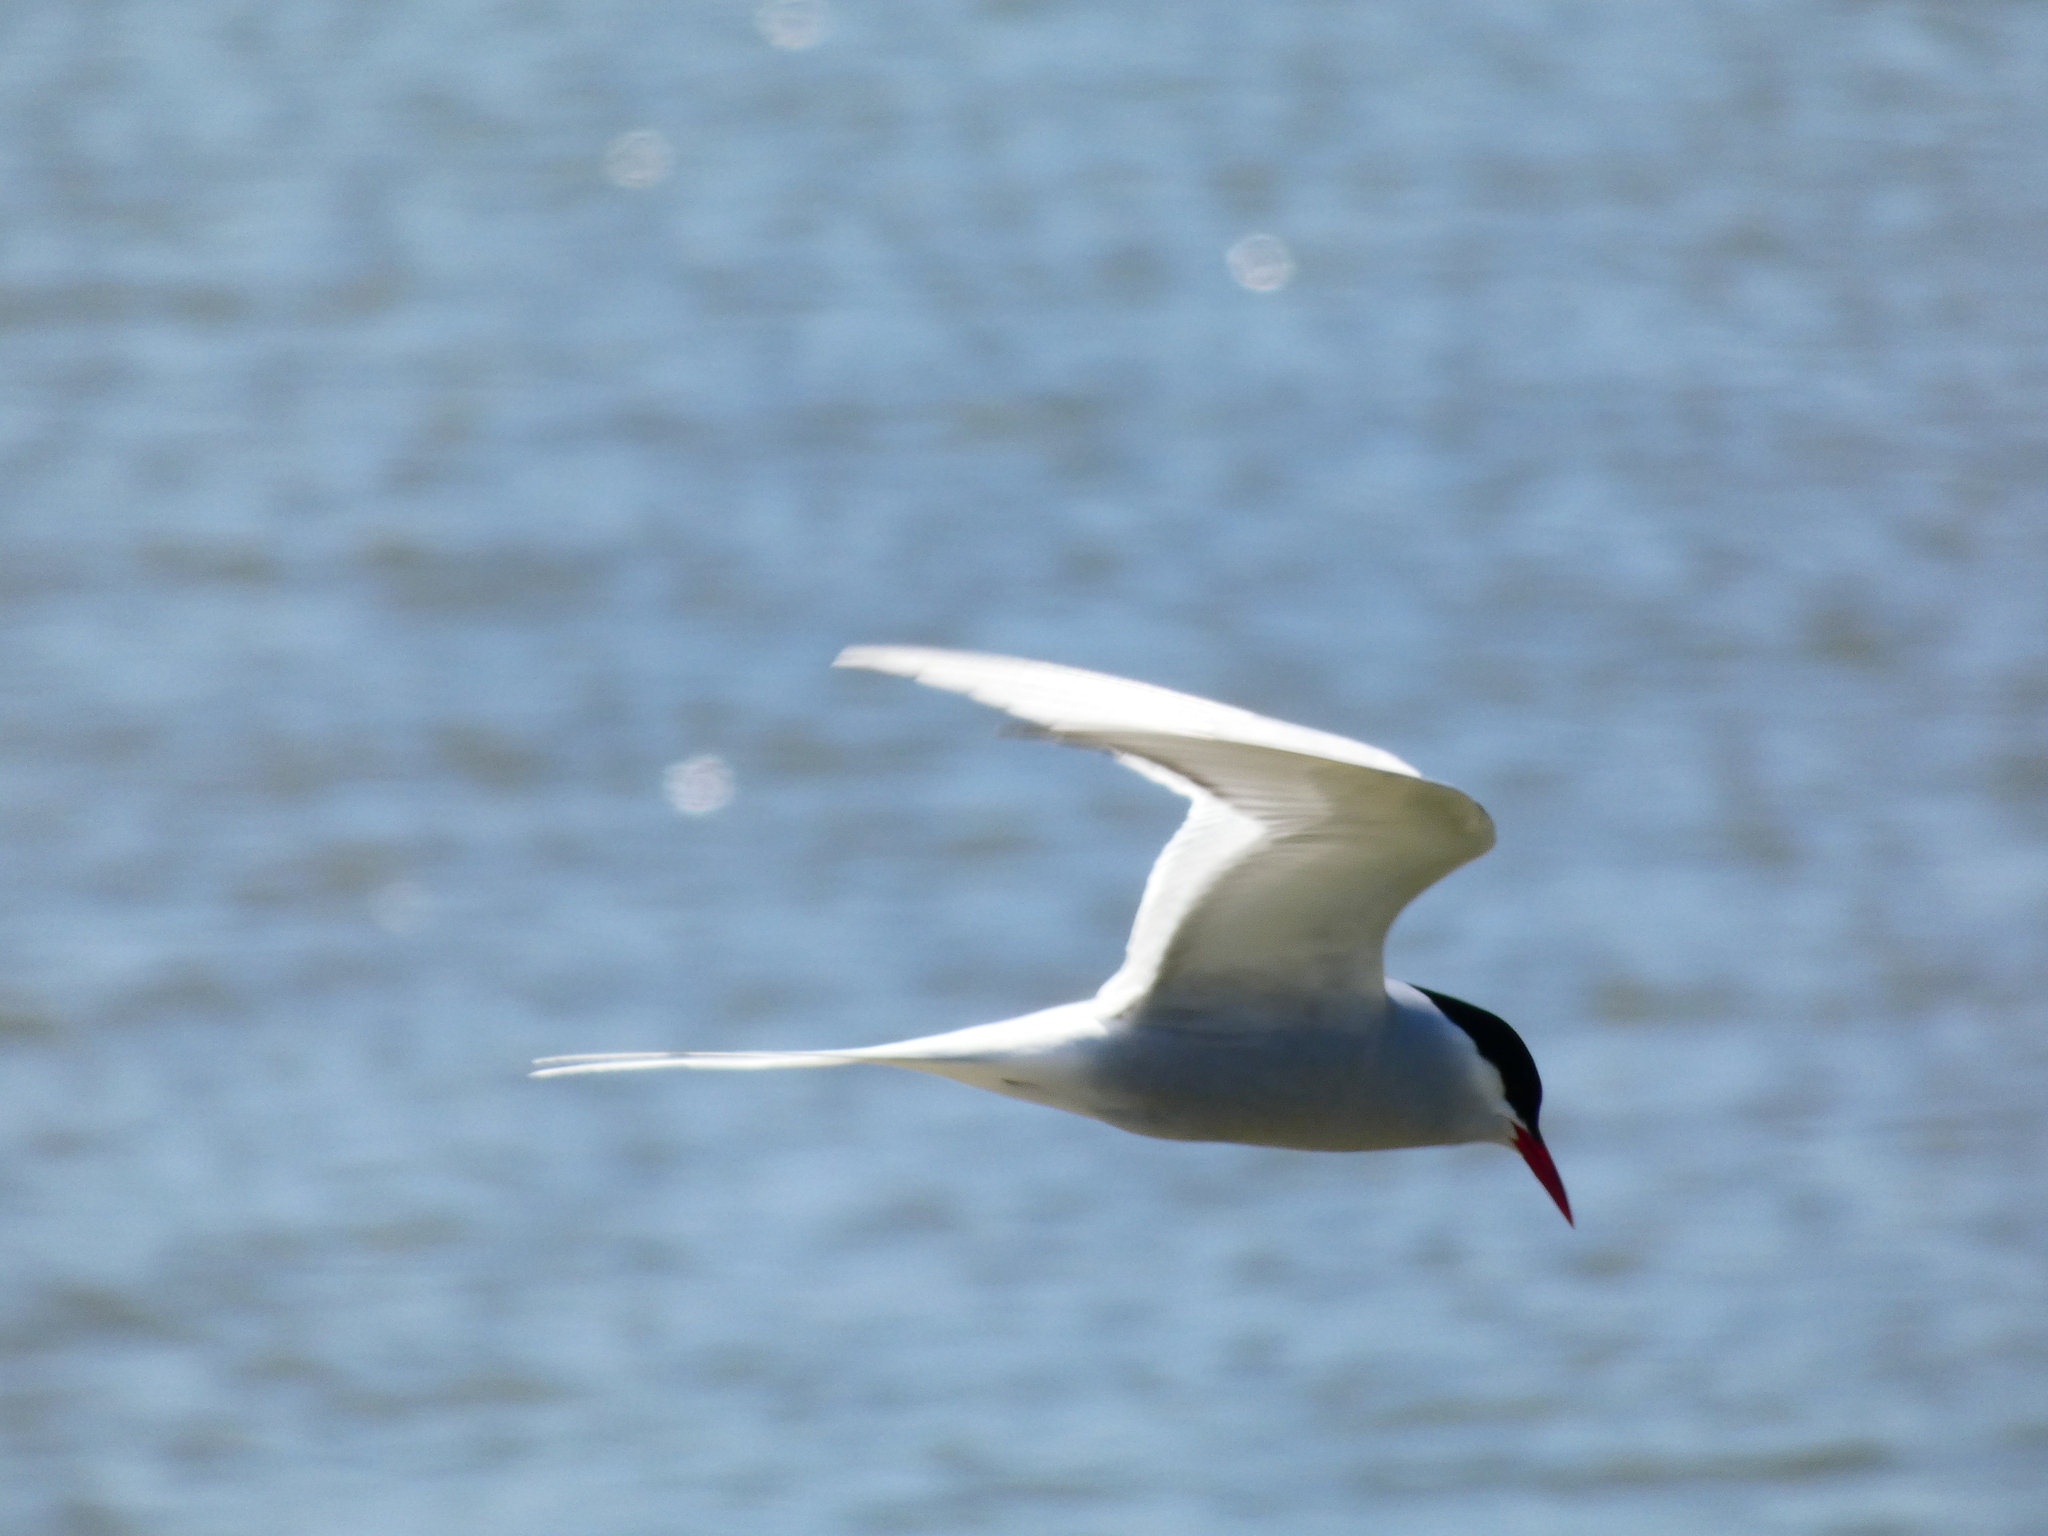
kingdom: Animalia
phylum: Chordata
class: Aves
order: Charadriiformes
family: Laridae
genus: Sterna
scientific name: Sterna paradisaea
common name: Arctic tern
